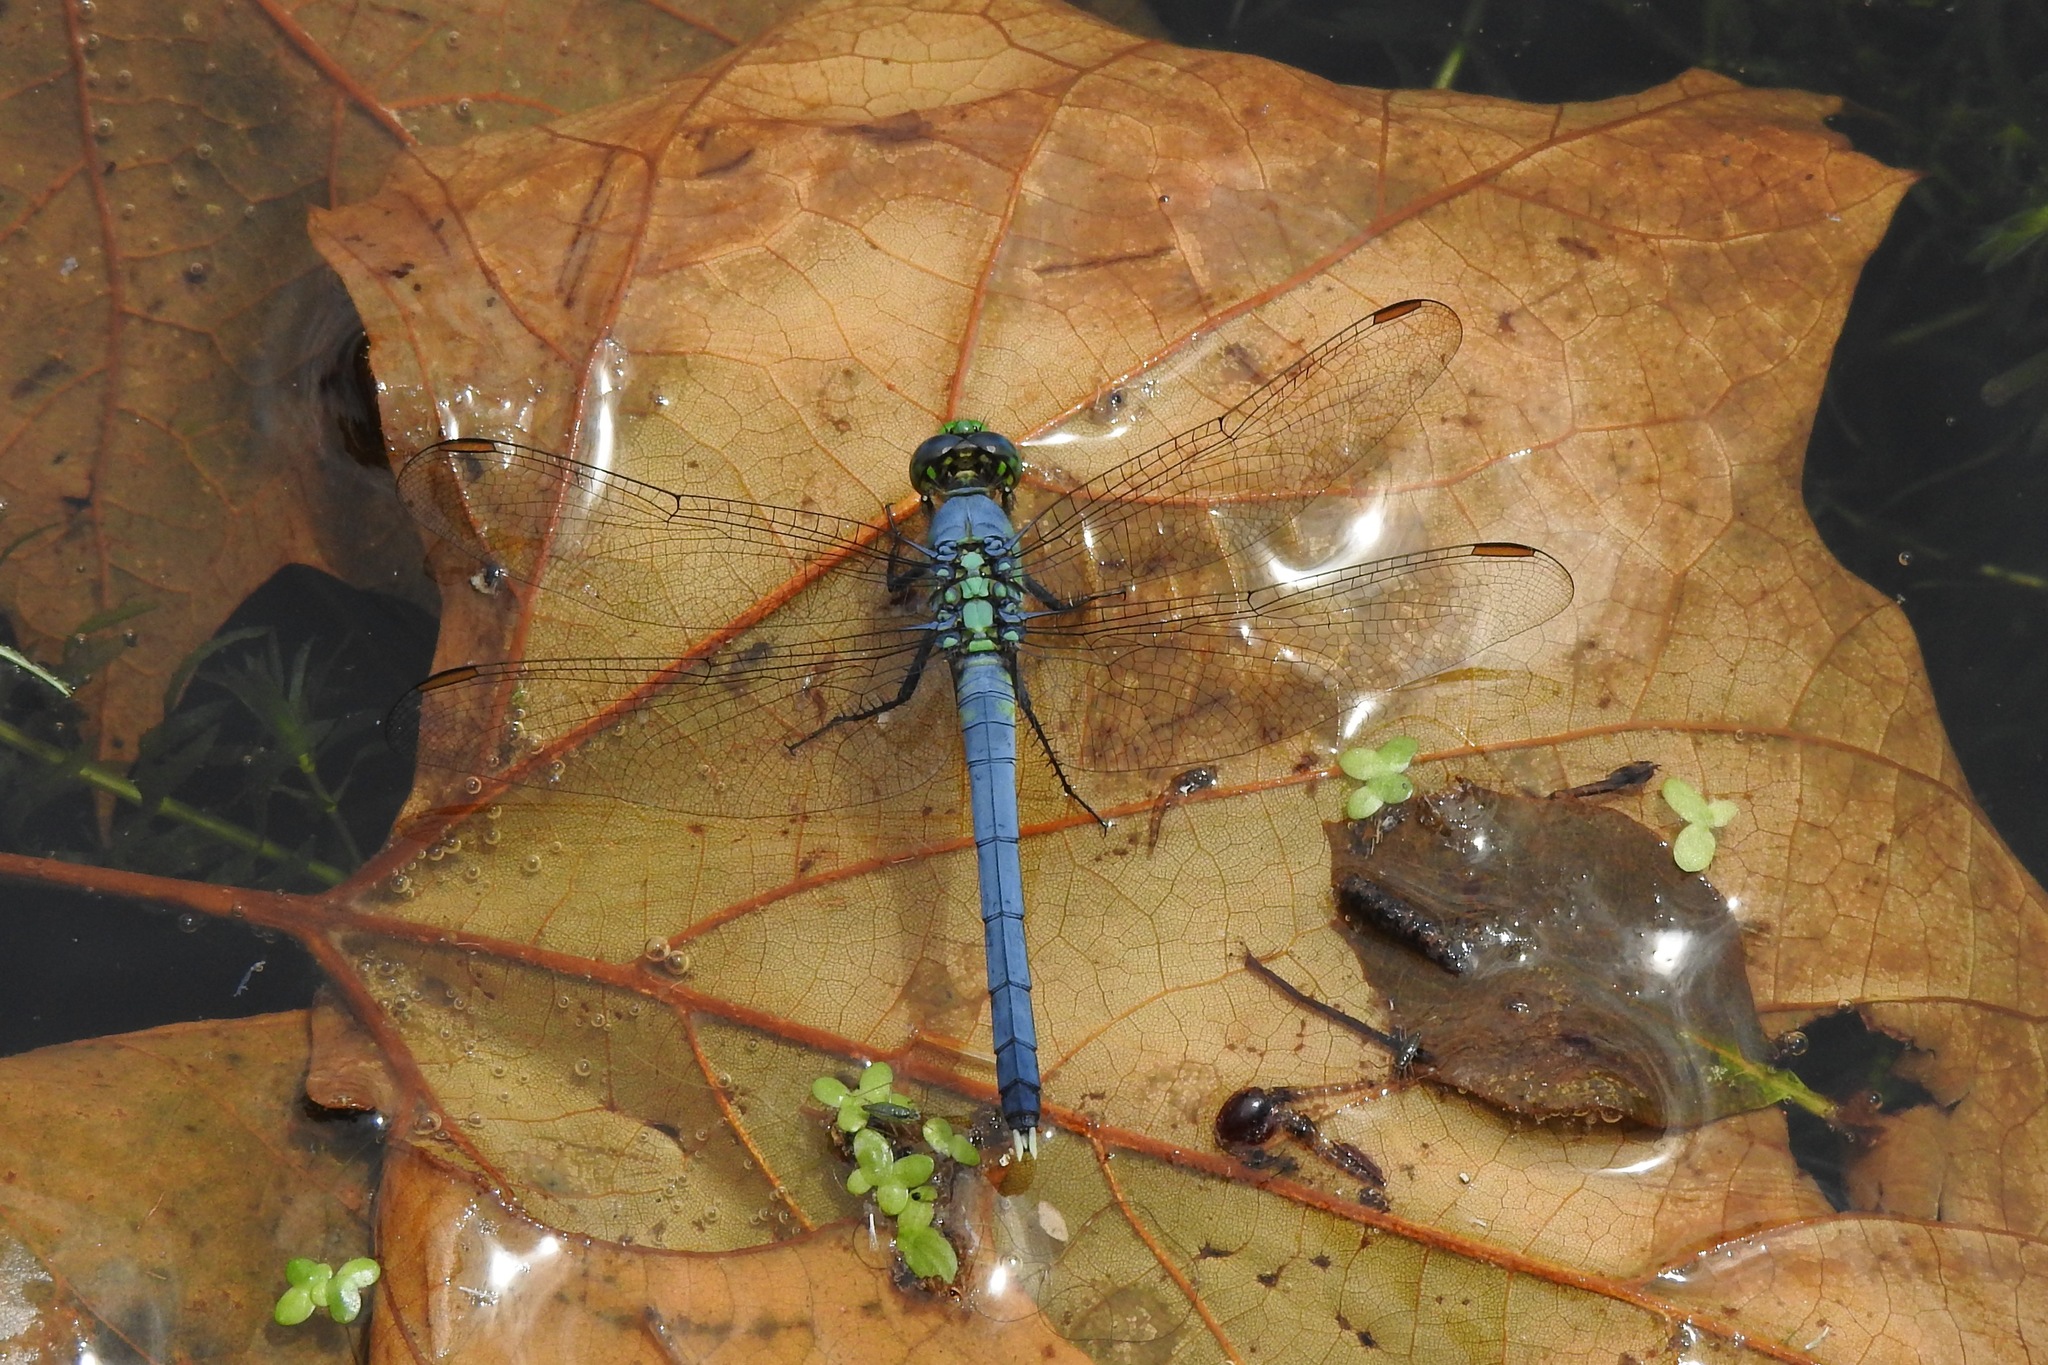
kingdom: Animalia
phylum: Arthropoda
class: Insecta
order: Odonata
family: Libellulidae
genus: Erythemis
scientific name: Erythemis simplicicollis
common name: Eastern pondhawk
